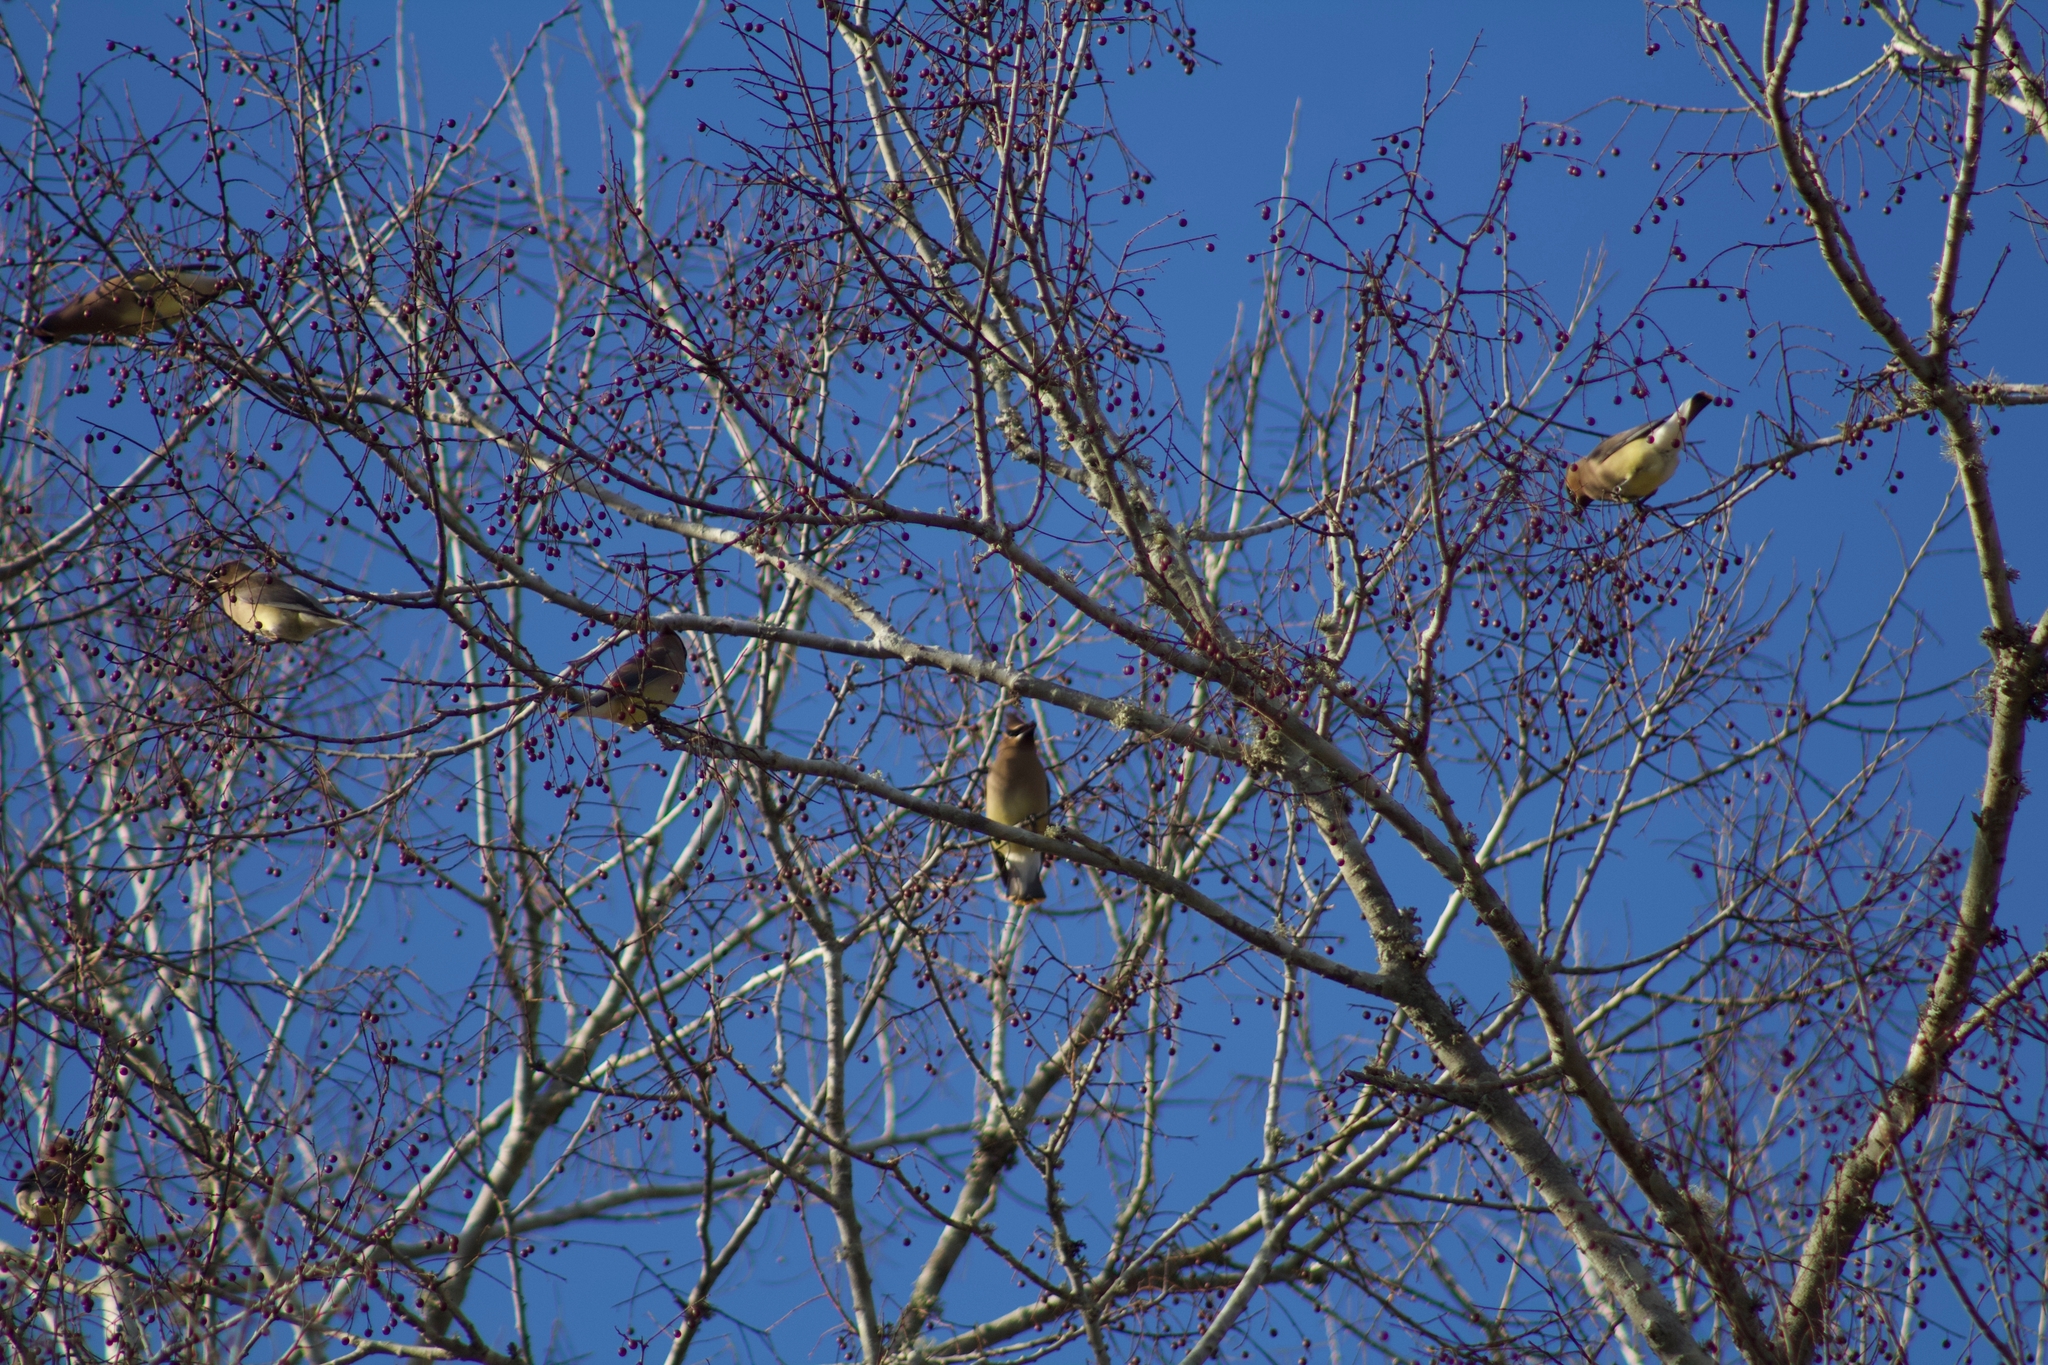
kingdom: Animalia
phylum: Chordata
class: Aves
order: Passeriformes
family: Bombycillidae
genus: Bombycilla
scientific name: Bombycilla cedrorum
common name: Cedar waxwing
